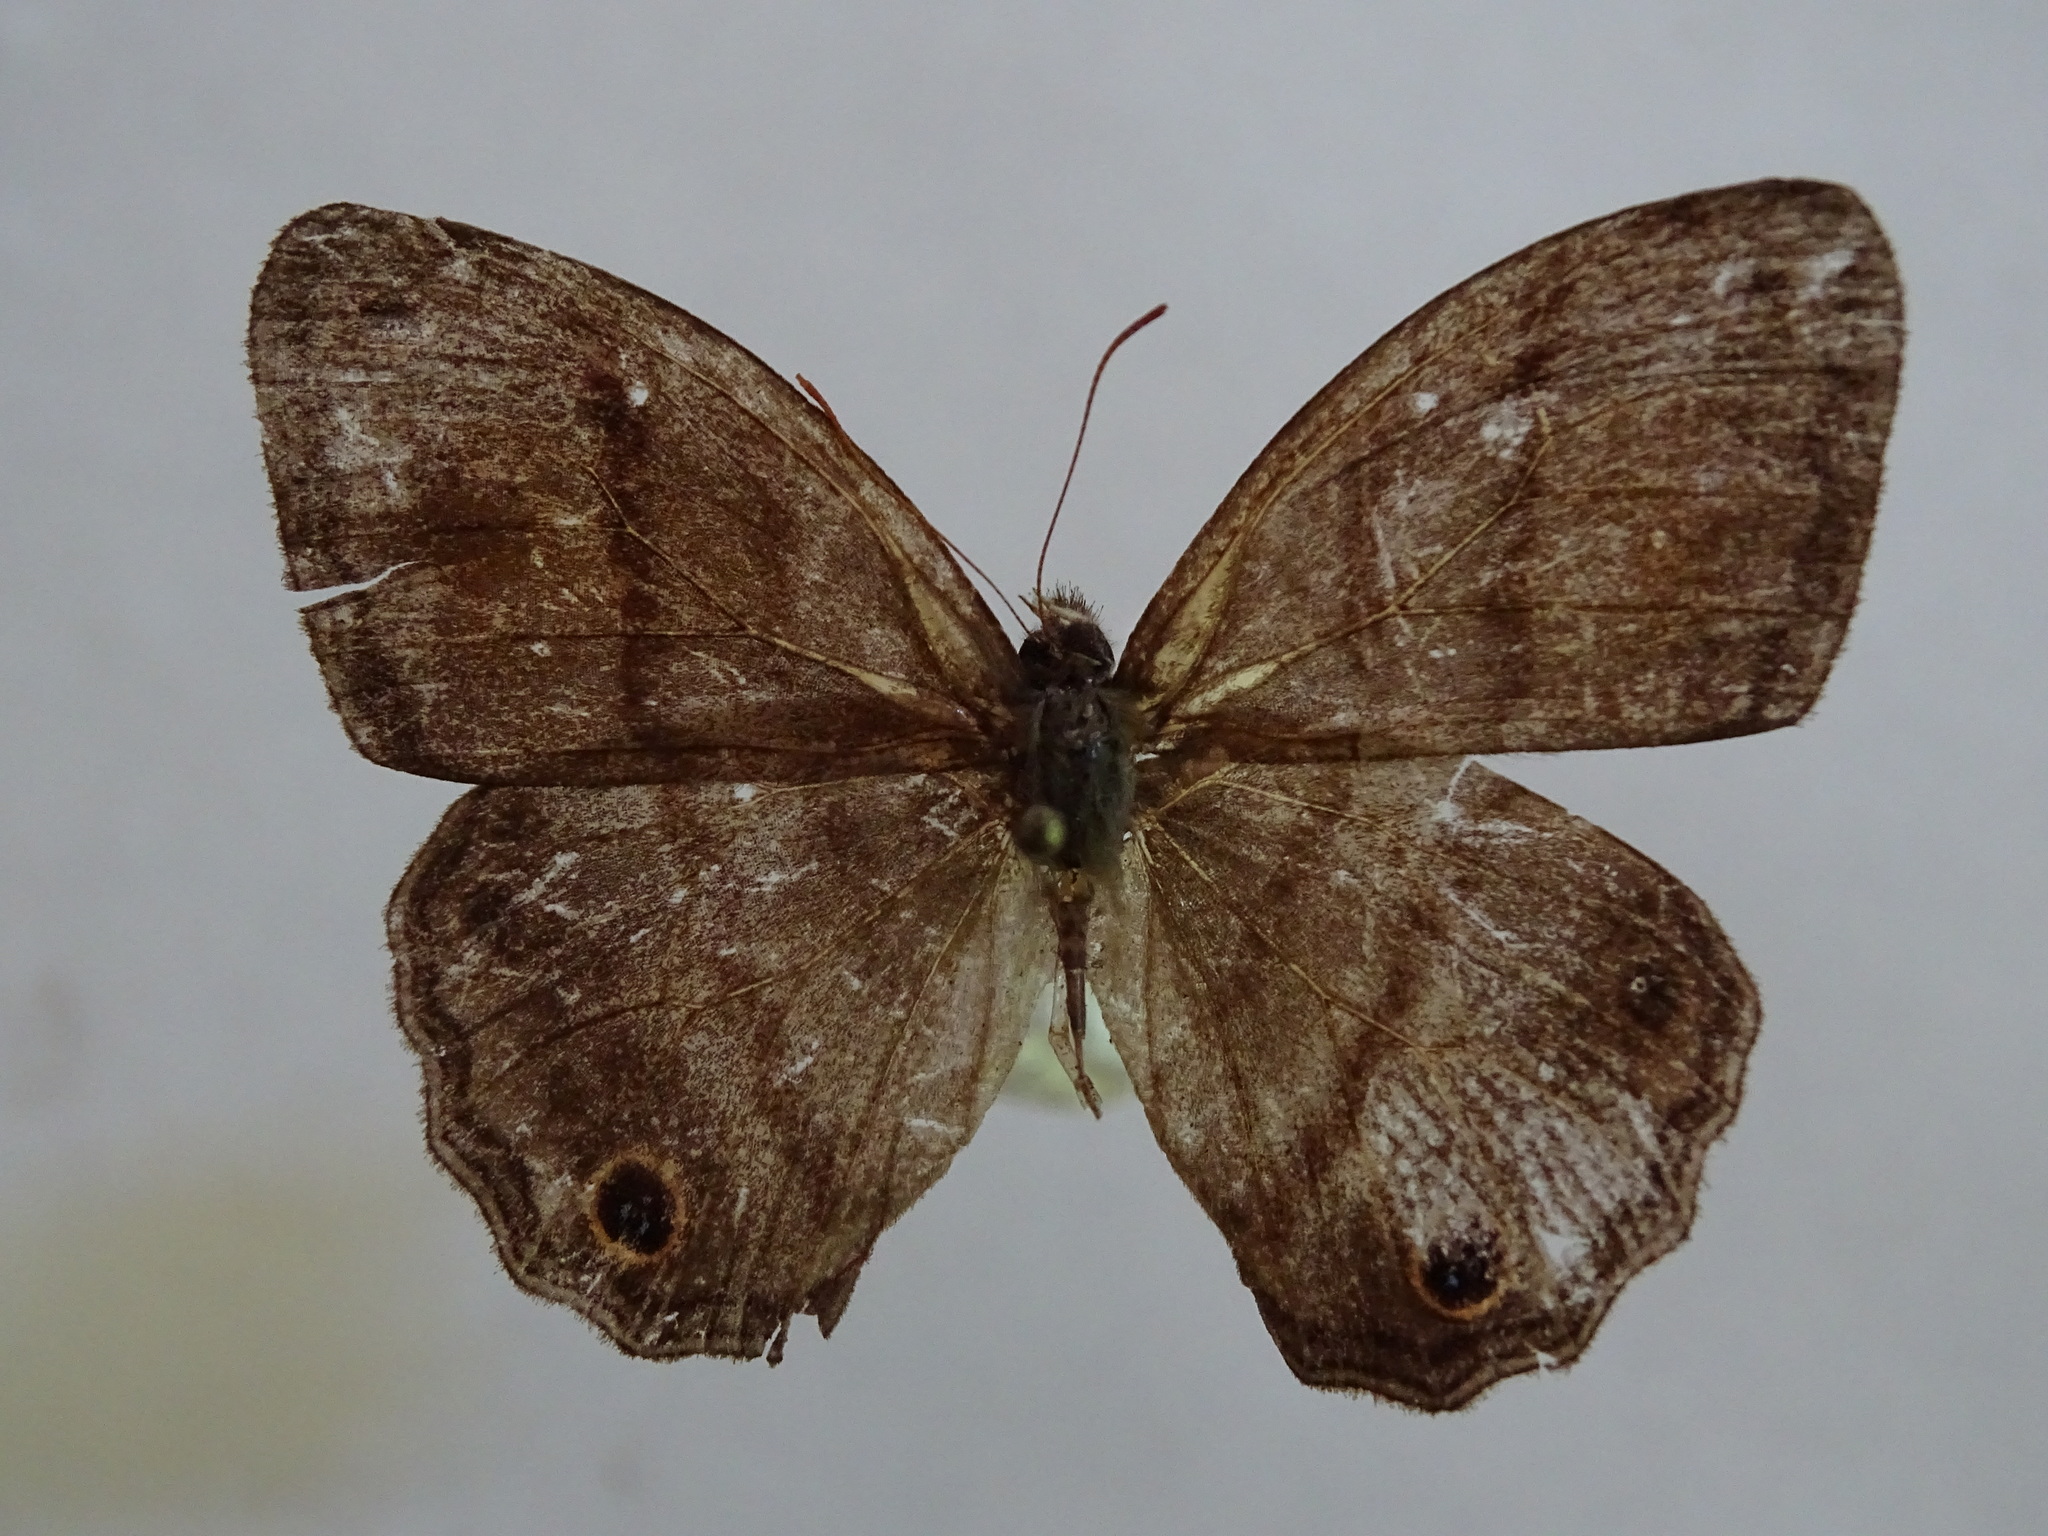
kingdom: Animalia
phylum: Arthropoda
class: Insecta
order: Lepidoptera
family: Nymphalidae
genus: Modica
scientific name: Modica
